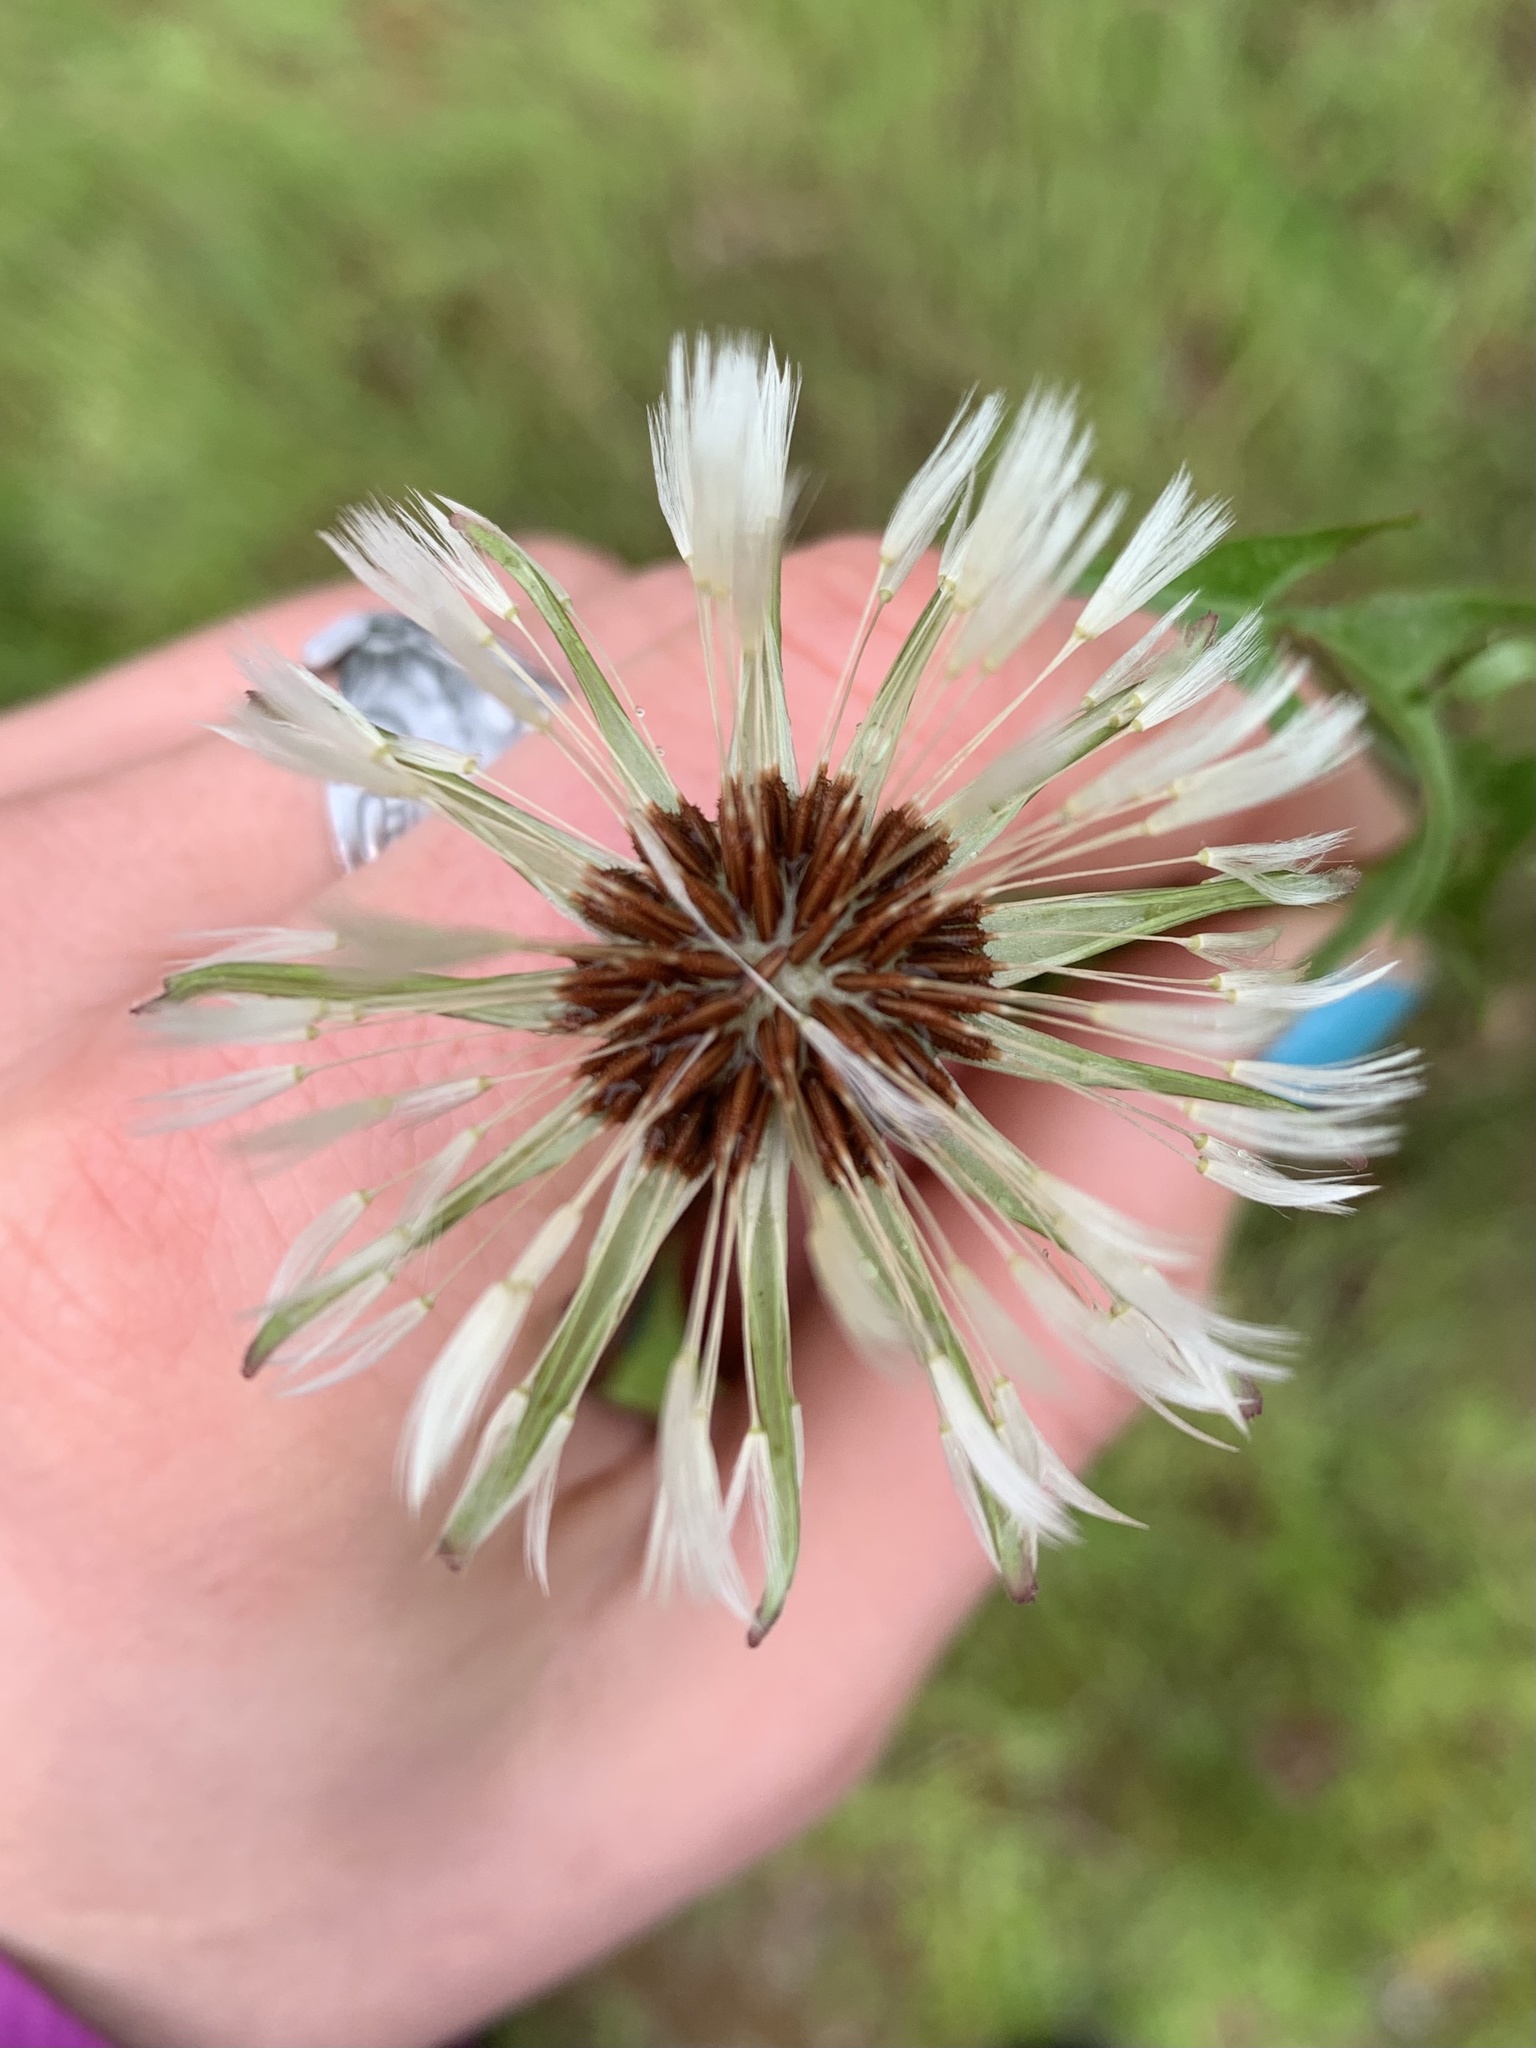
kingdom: Plantae
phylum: Tracheophyta
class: Magnoliopsida
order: Asterales
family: Asteraceae
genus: Taraxacum
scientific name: Taraxacum erythrospermum
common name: Rock dandelion
